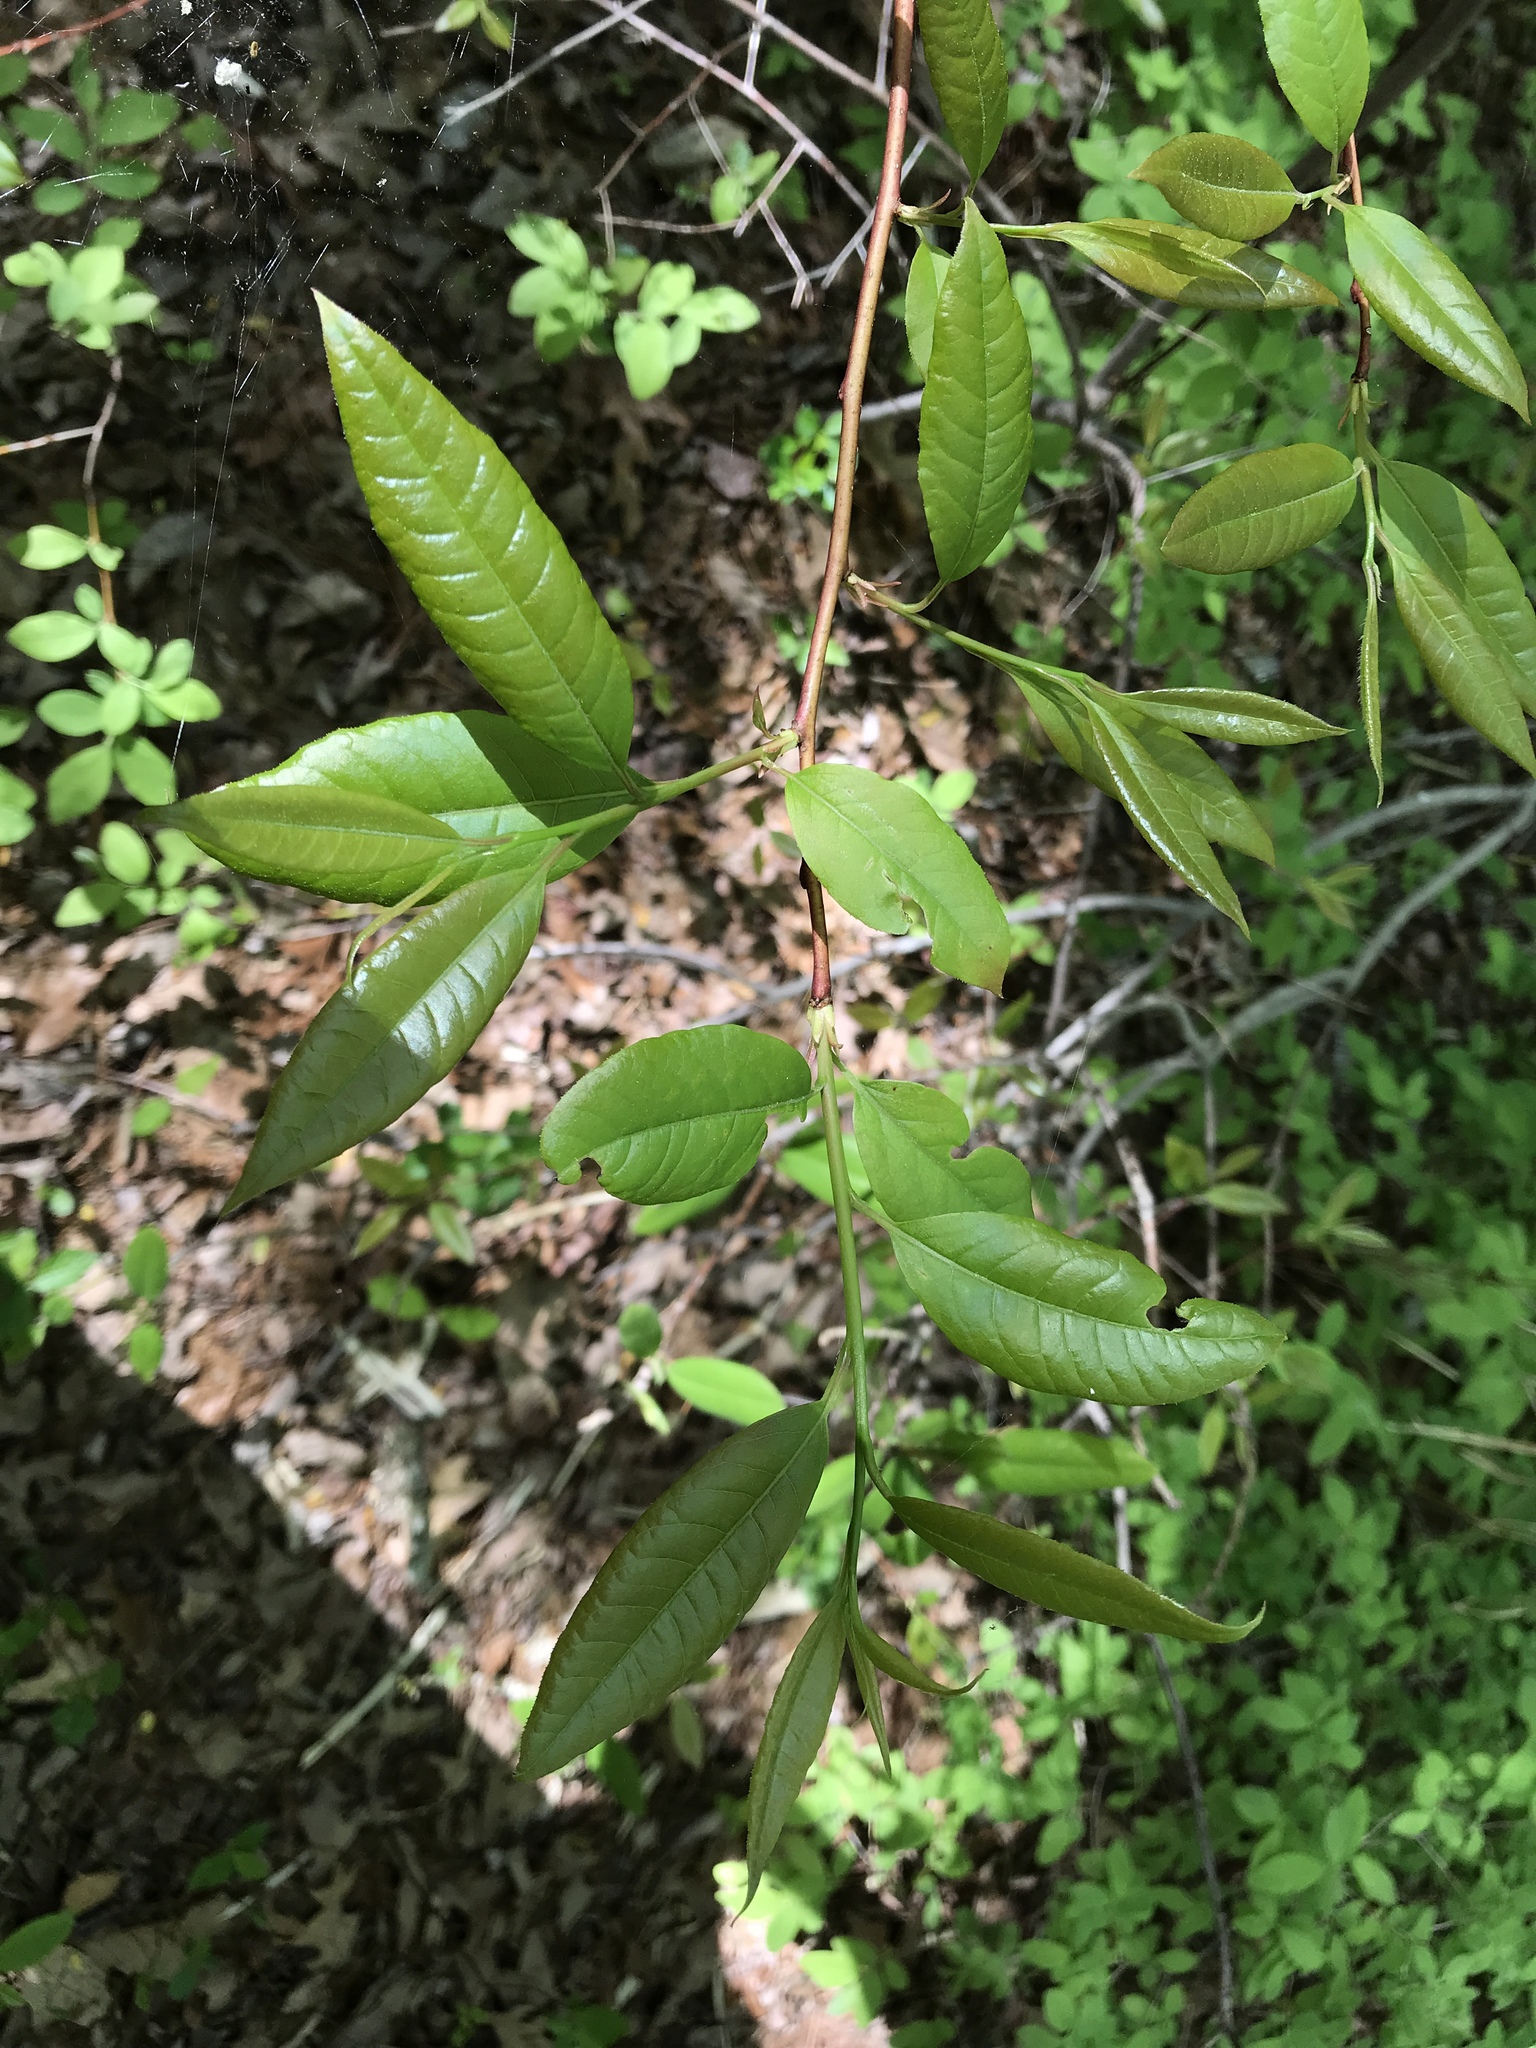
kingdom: Plantae
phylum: Tracheophyta
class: Magnoliopsida
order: Ericales
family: Ericaceae
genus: Oxydendrum
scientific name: Oxydendrum arboreum
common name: Sourwood
